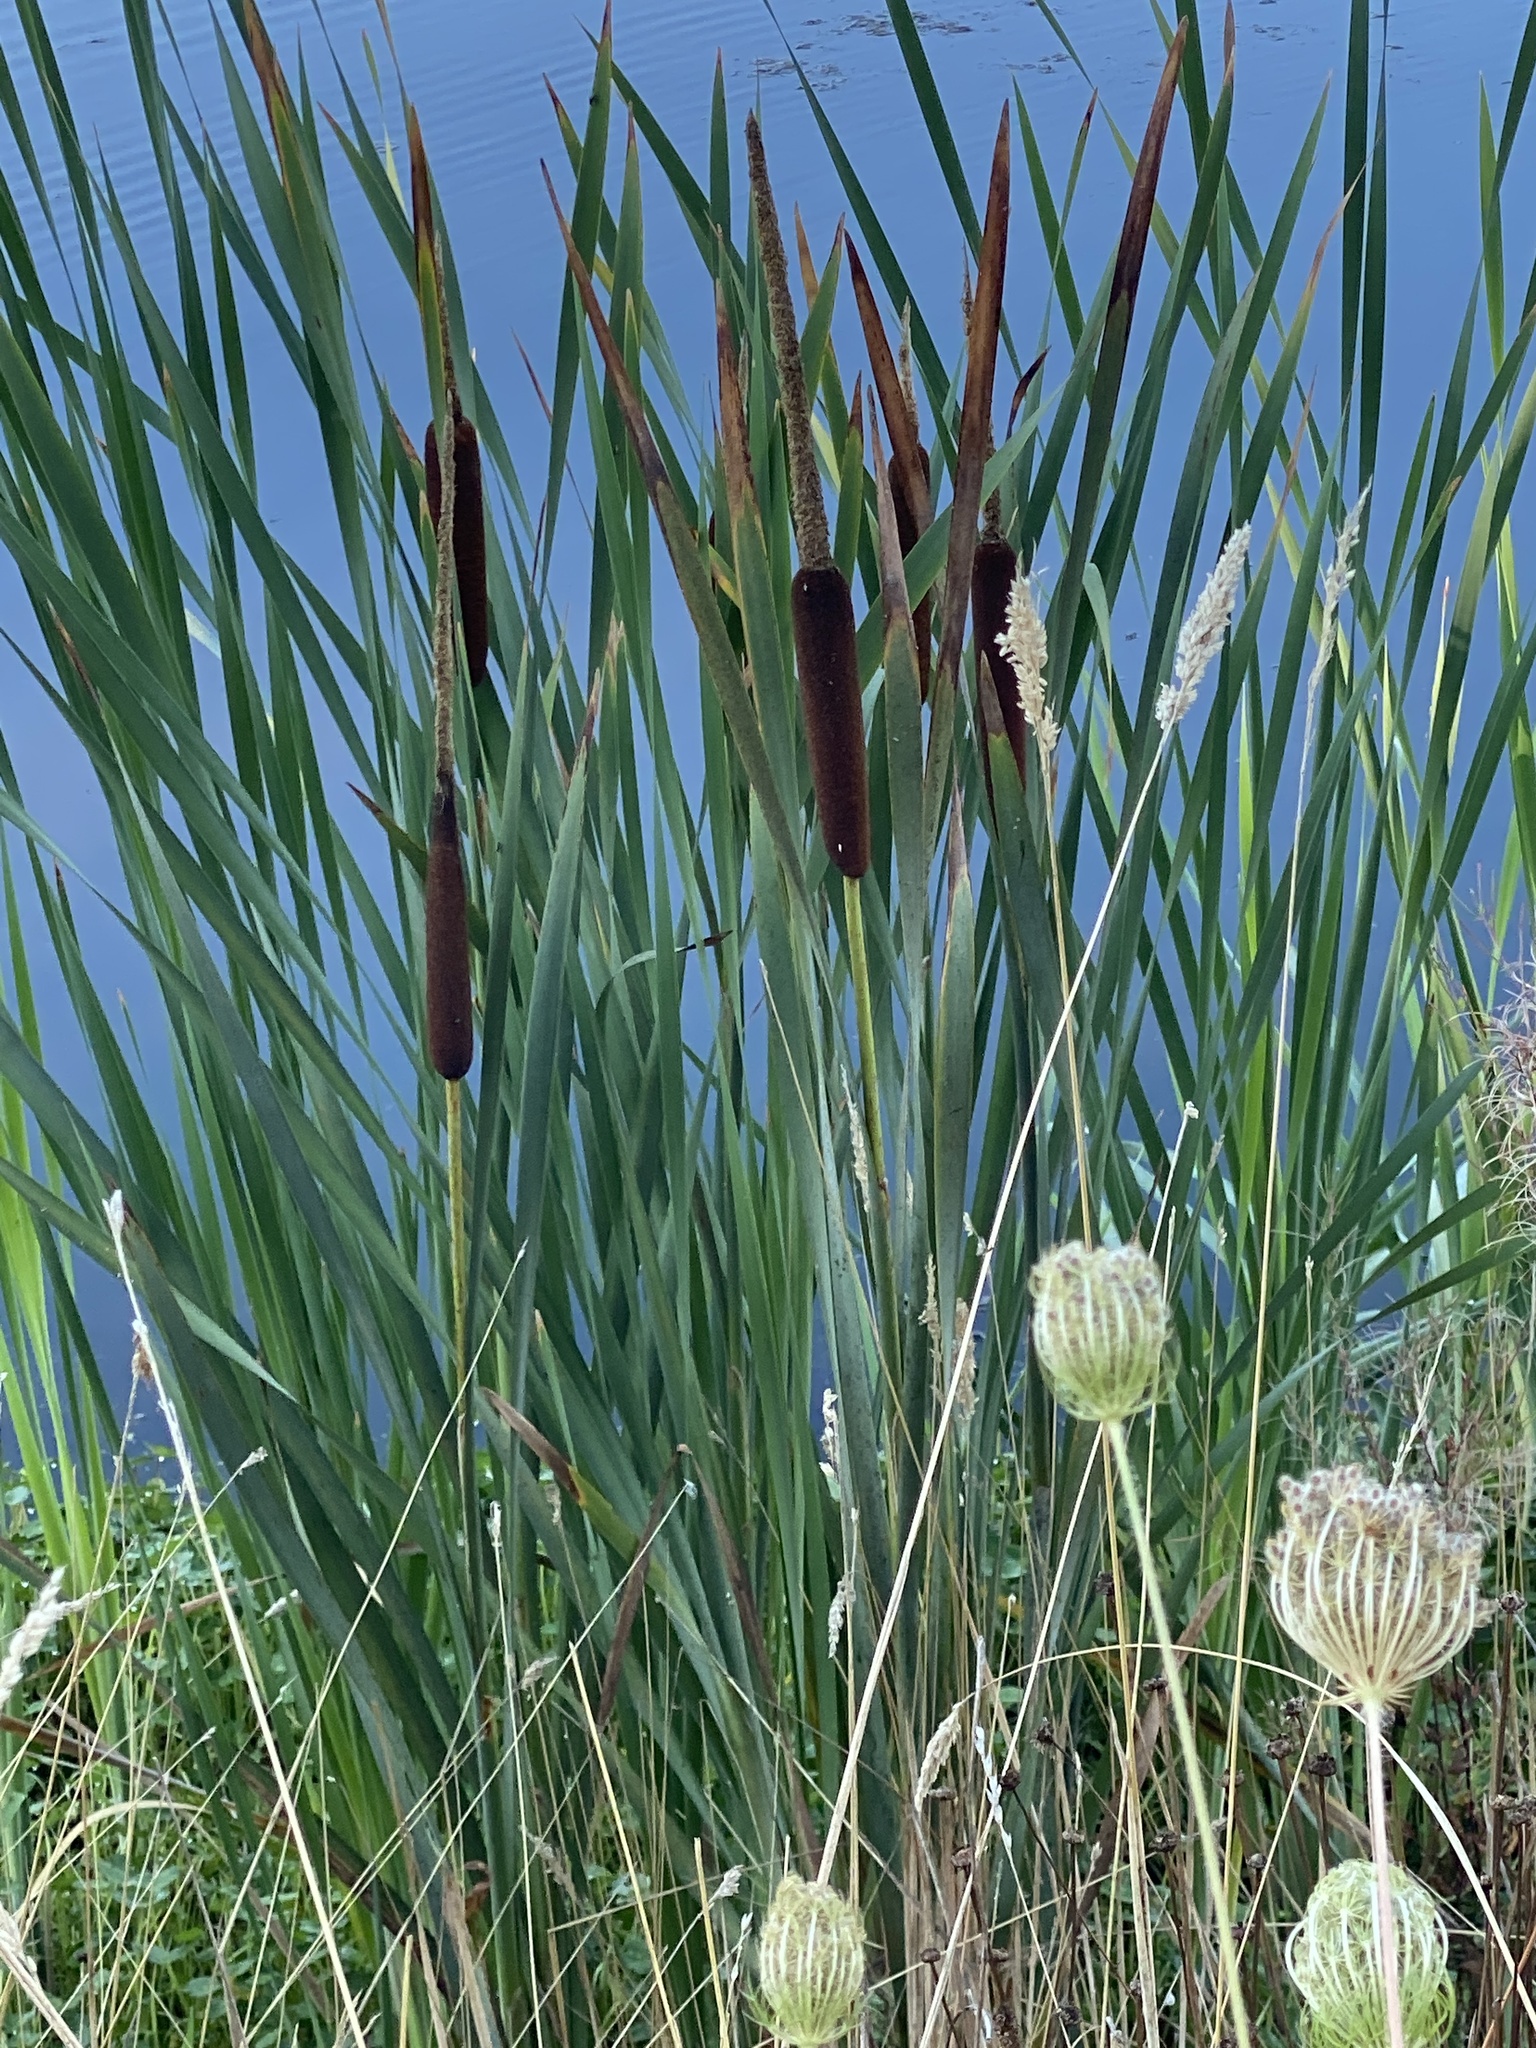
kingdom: Plantae
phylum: Tracheophyta
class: Liliopsida
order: Poales
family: Typhaceae
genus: Typha
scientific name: Typha latifolia
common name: Broadleaf cattail
